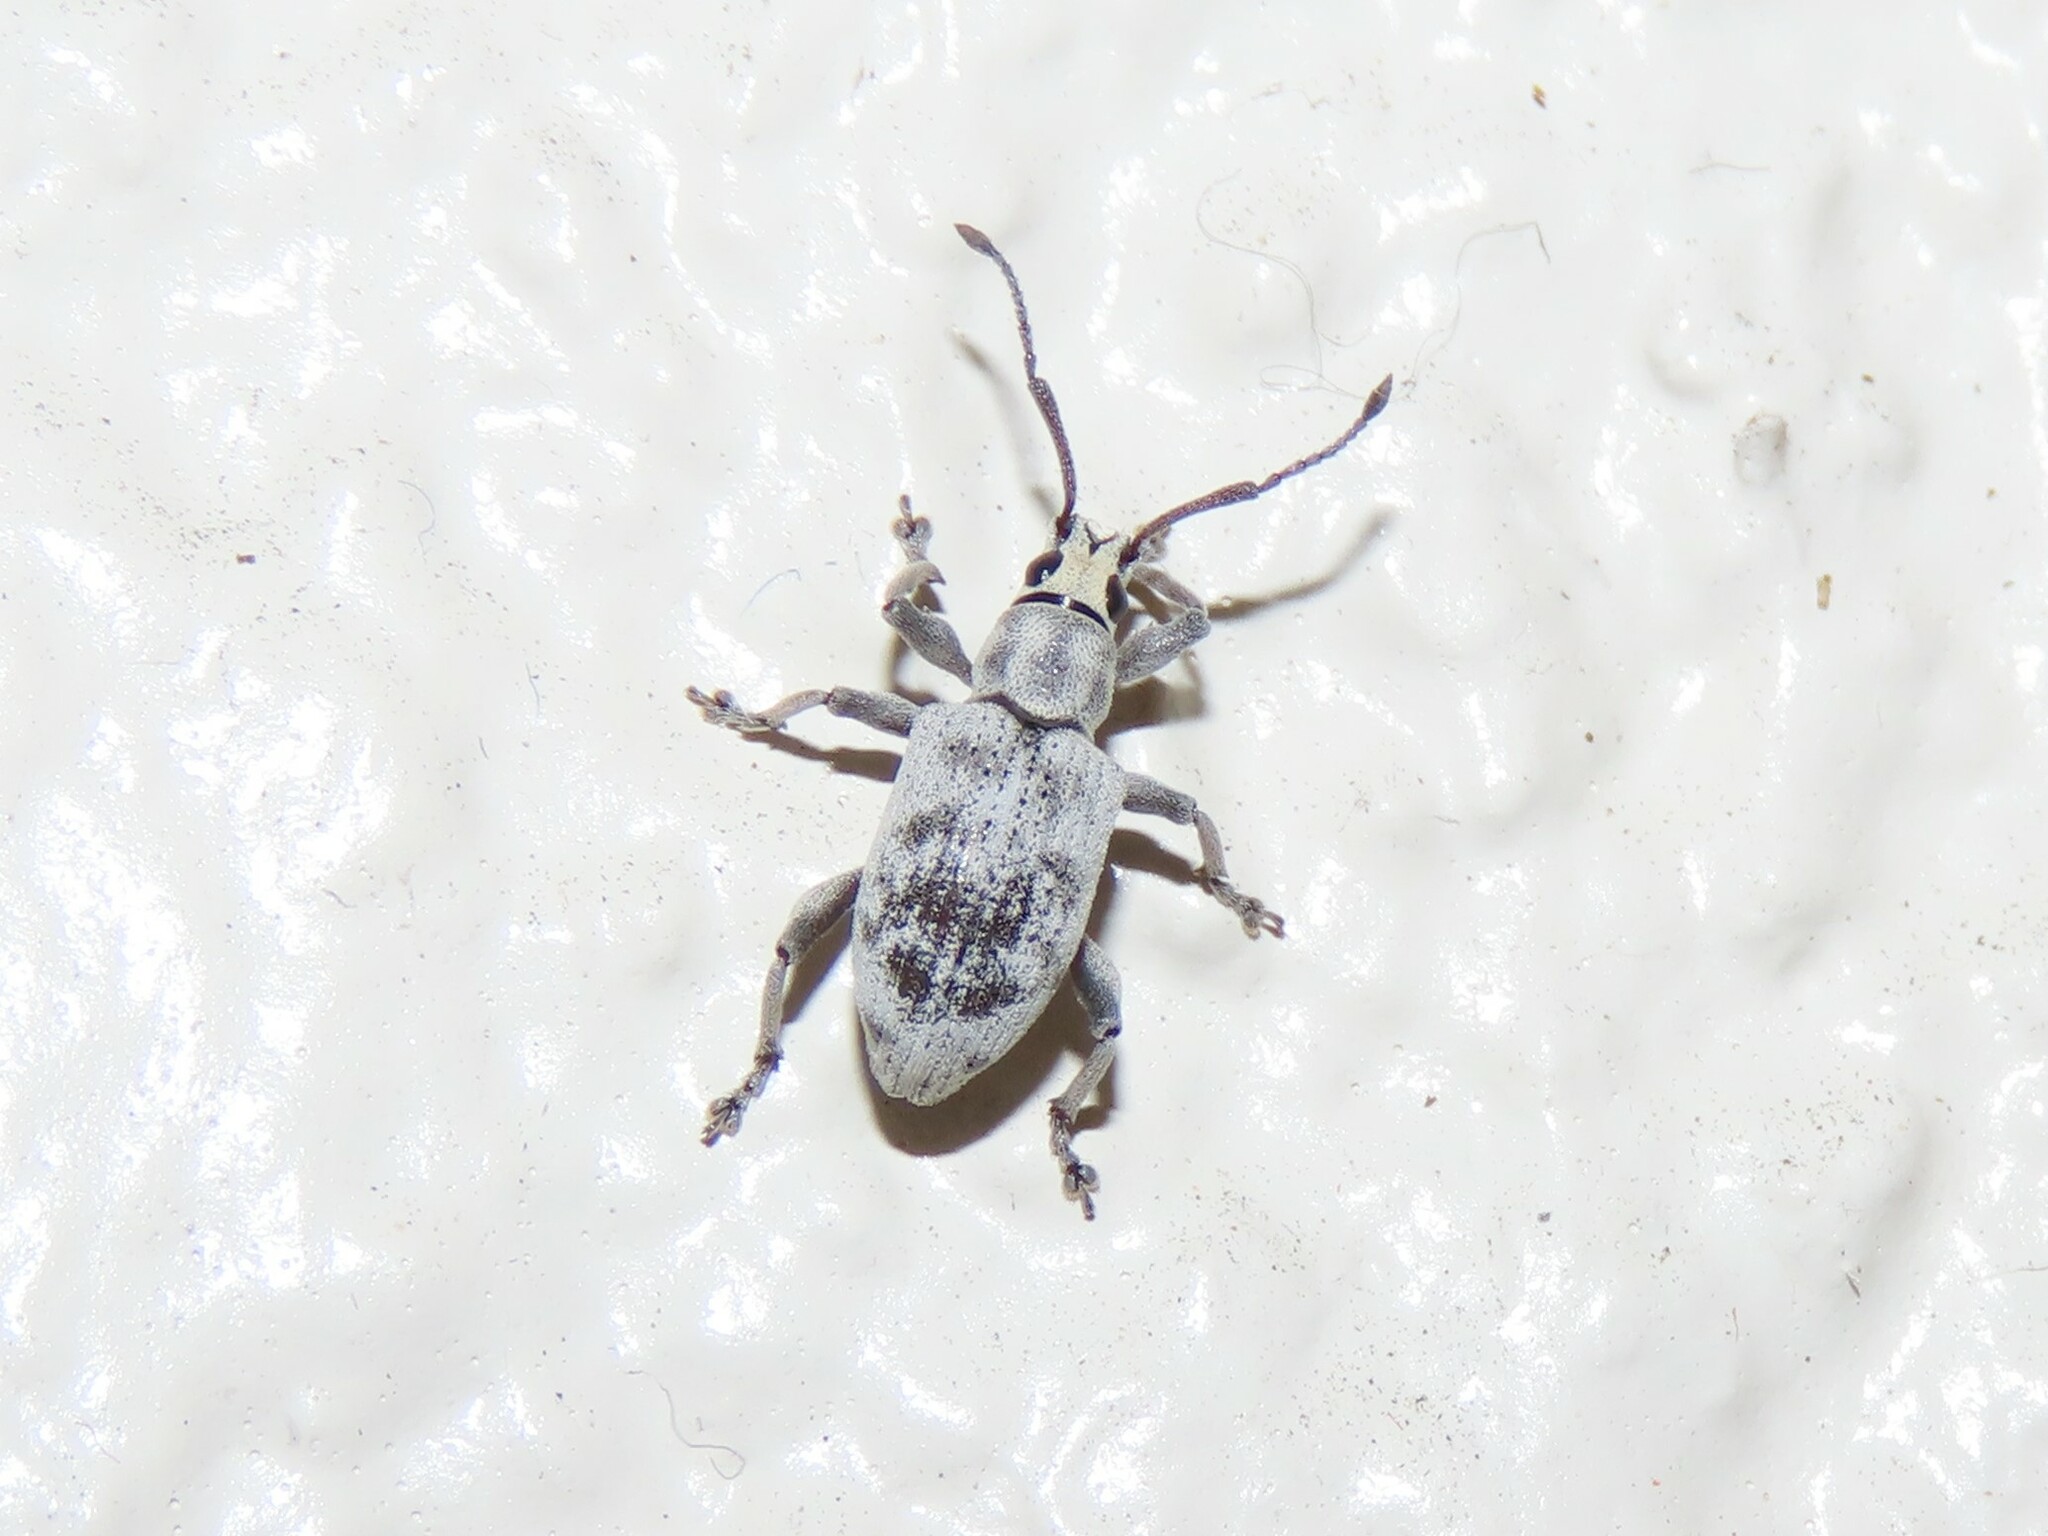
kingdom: Animalia
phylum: Arthropoda
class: Insecta
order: Coleoptera
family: Curculionidae
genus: Myllocerus
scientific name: Myllocerus undecimpustulatus
